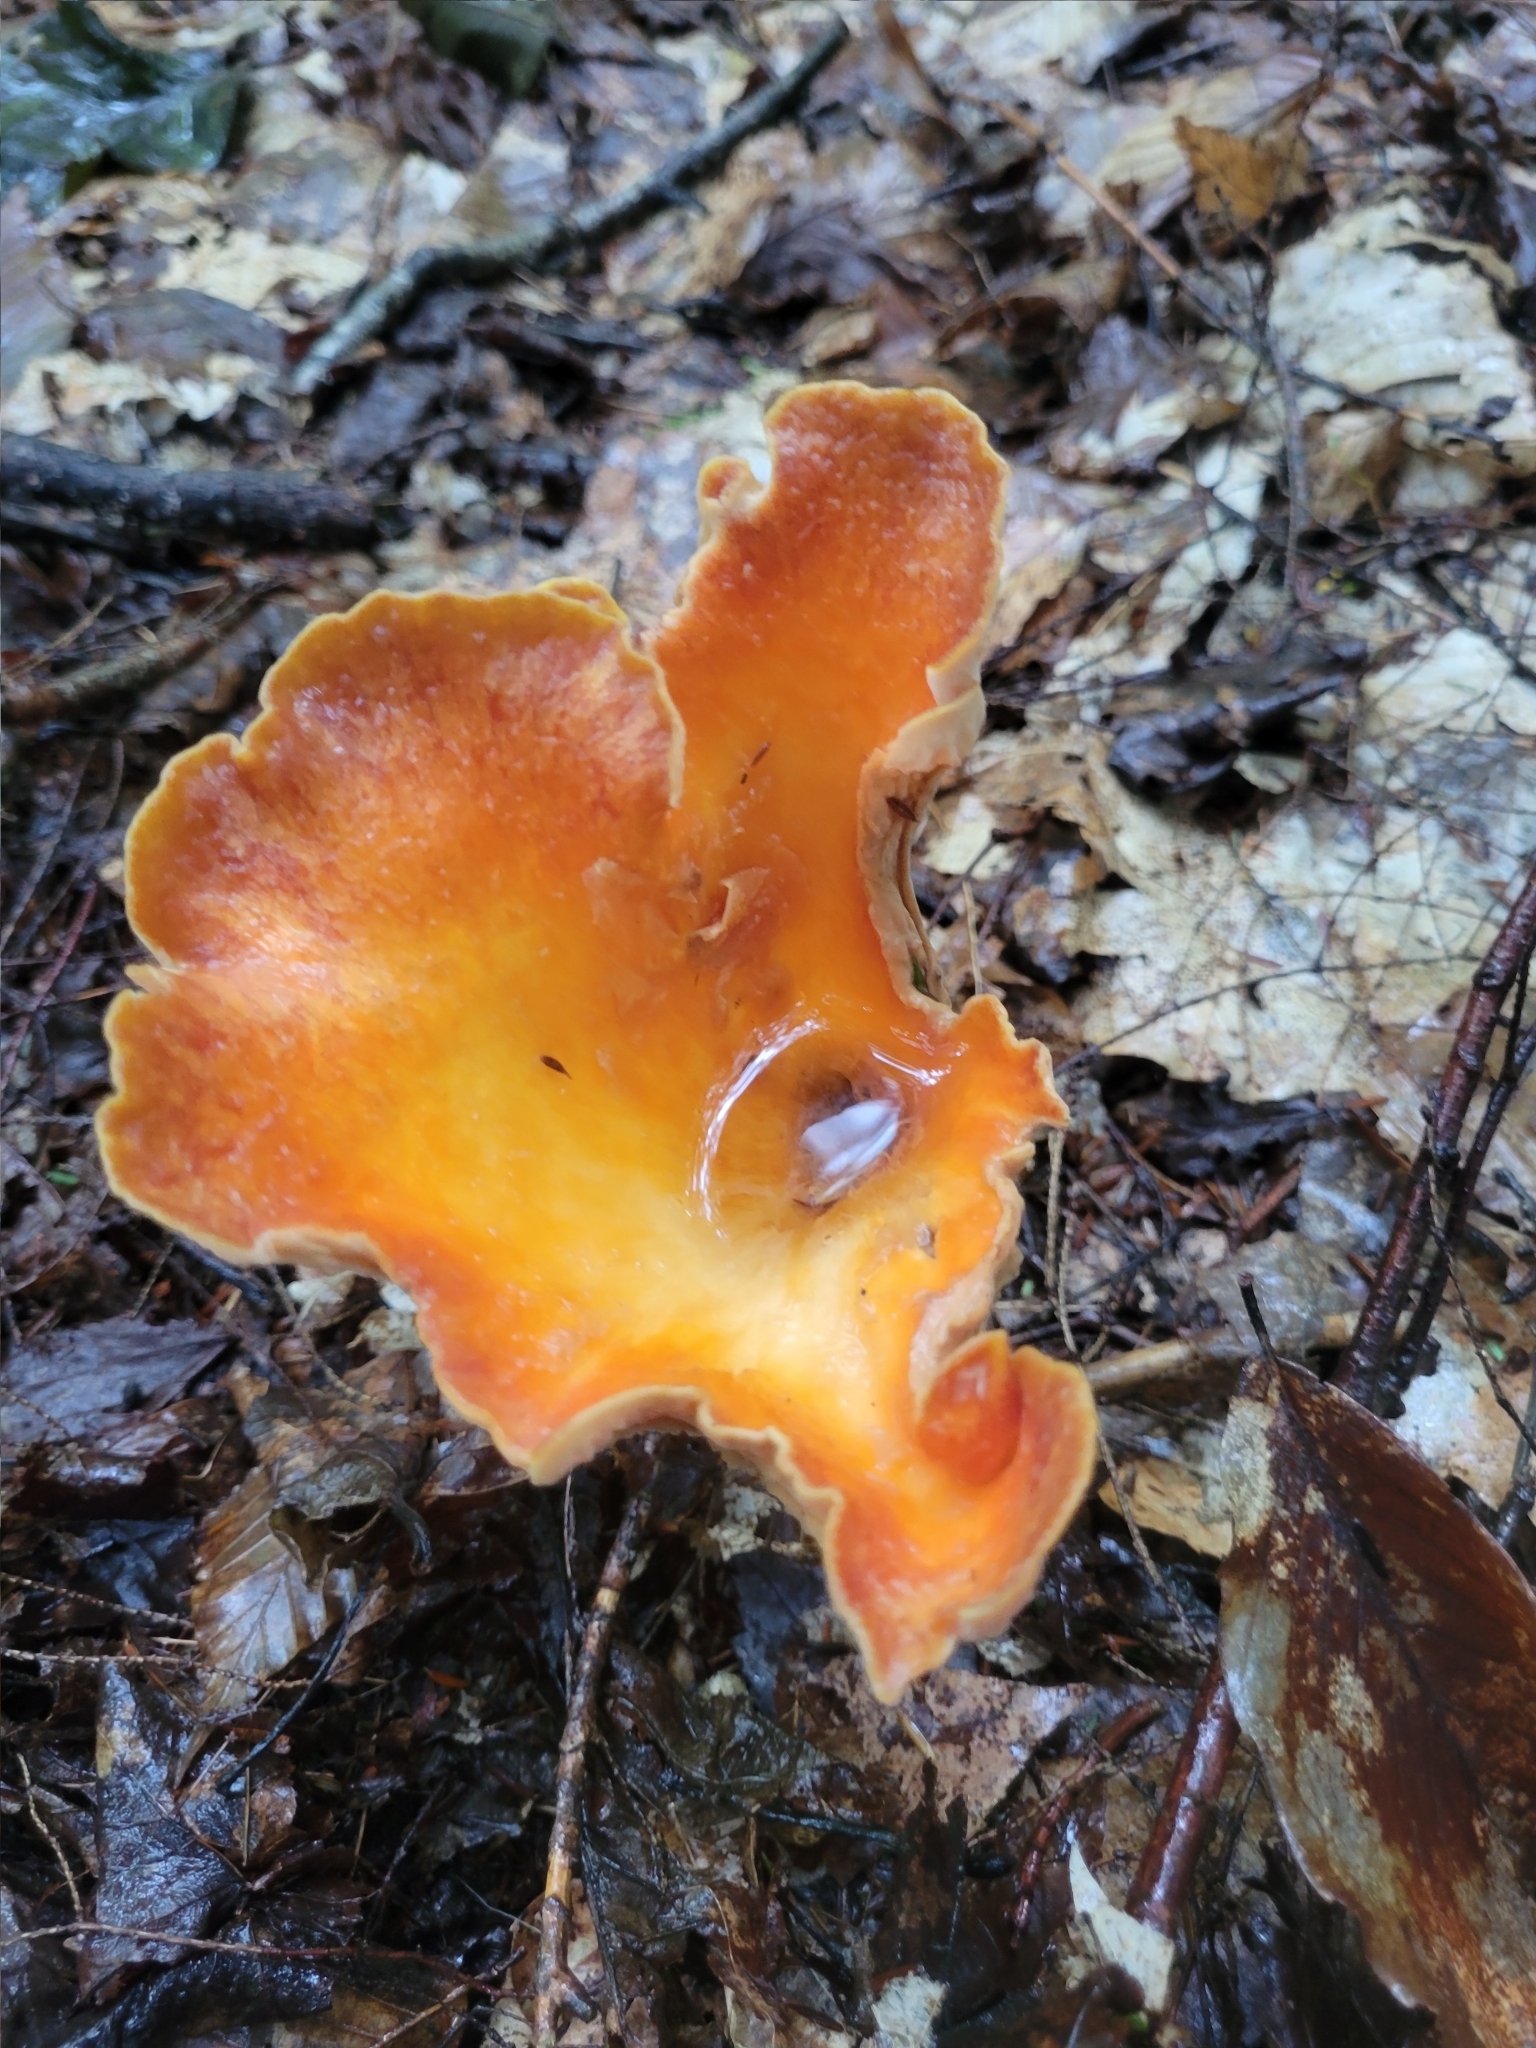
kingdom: Fungi
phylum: Basidiomycota
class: Agaricomycetes
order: Gomphales
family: Gomphaceae
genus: Turbinellus
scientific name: Turbinellus floccosus
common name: Scaly chanterelle
